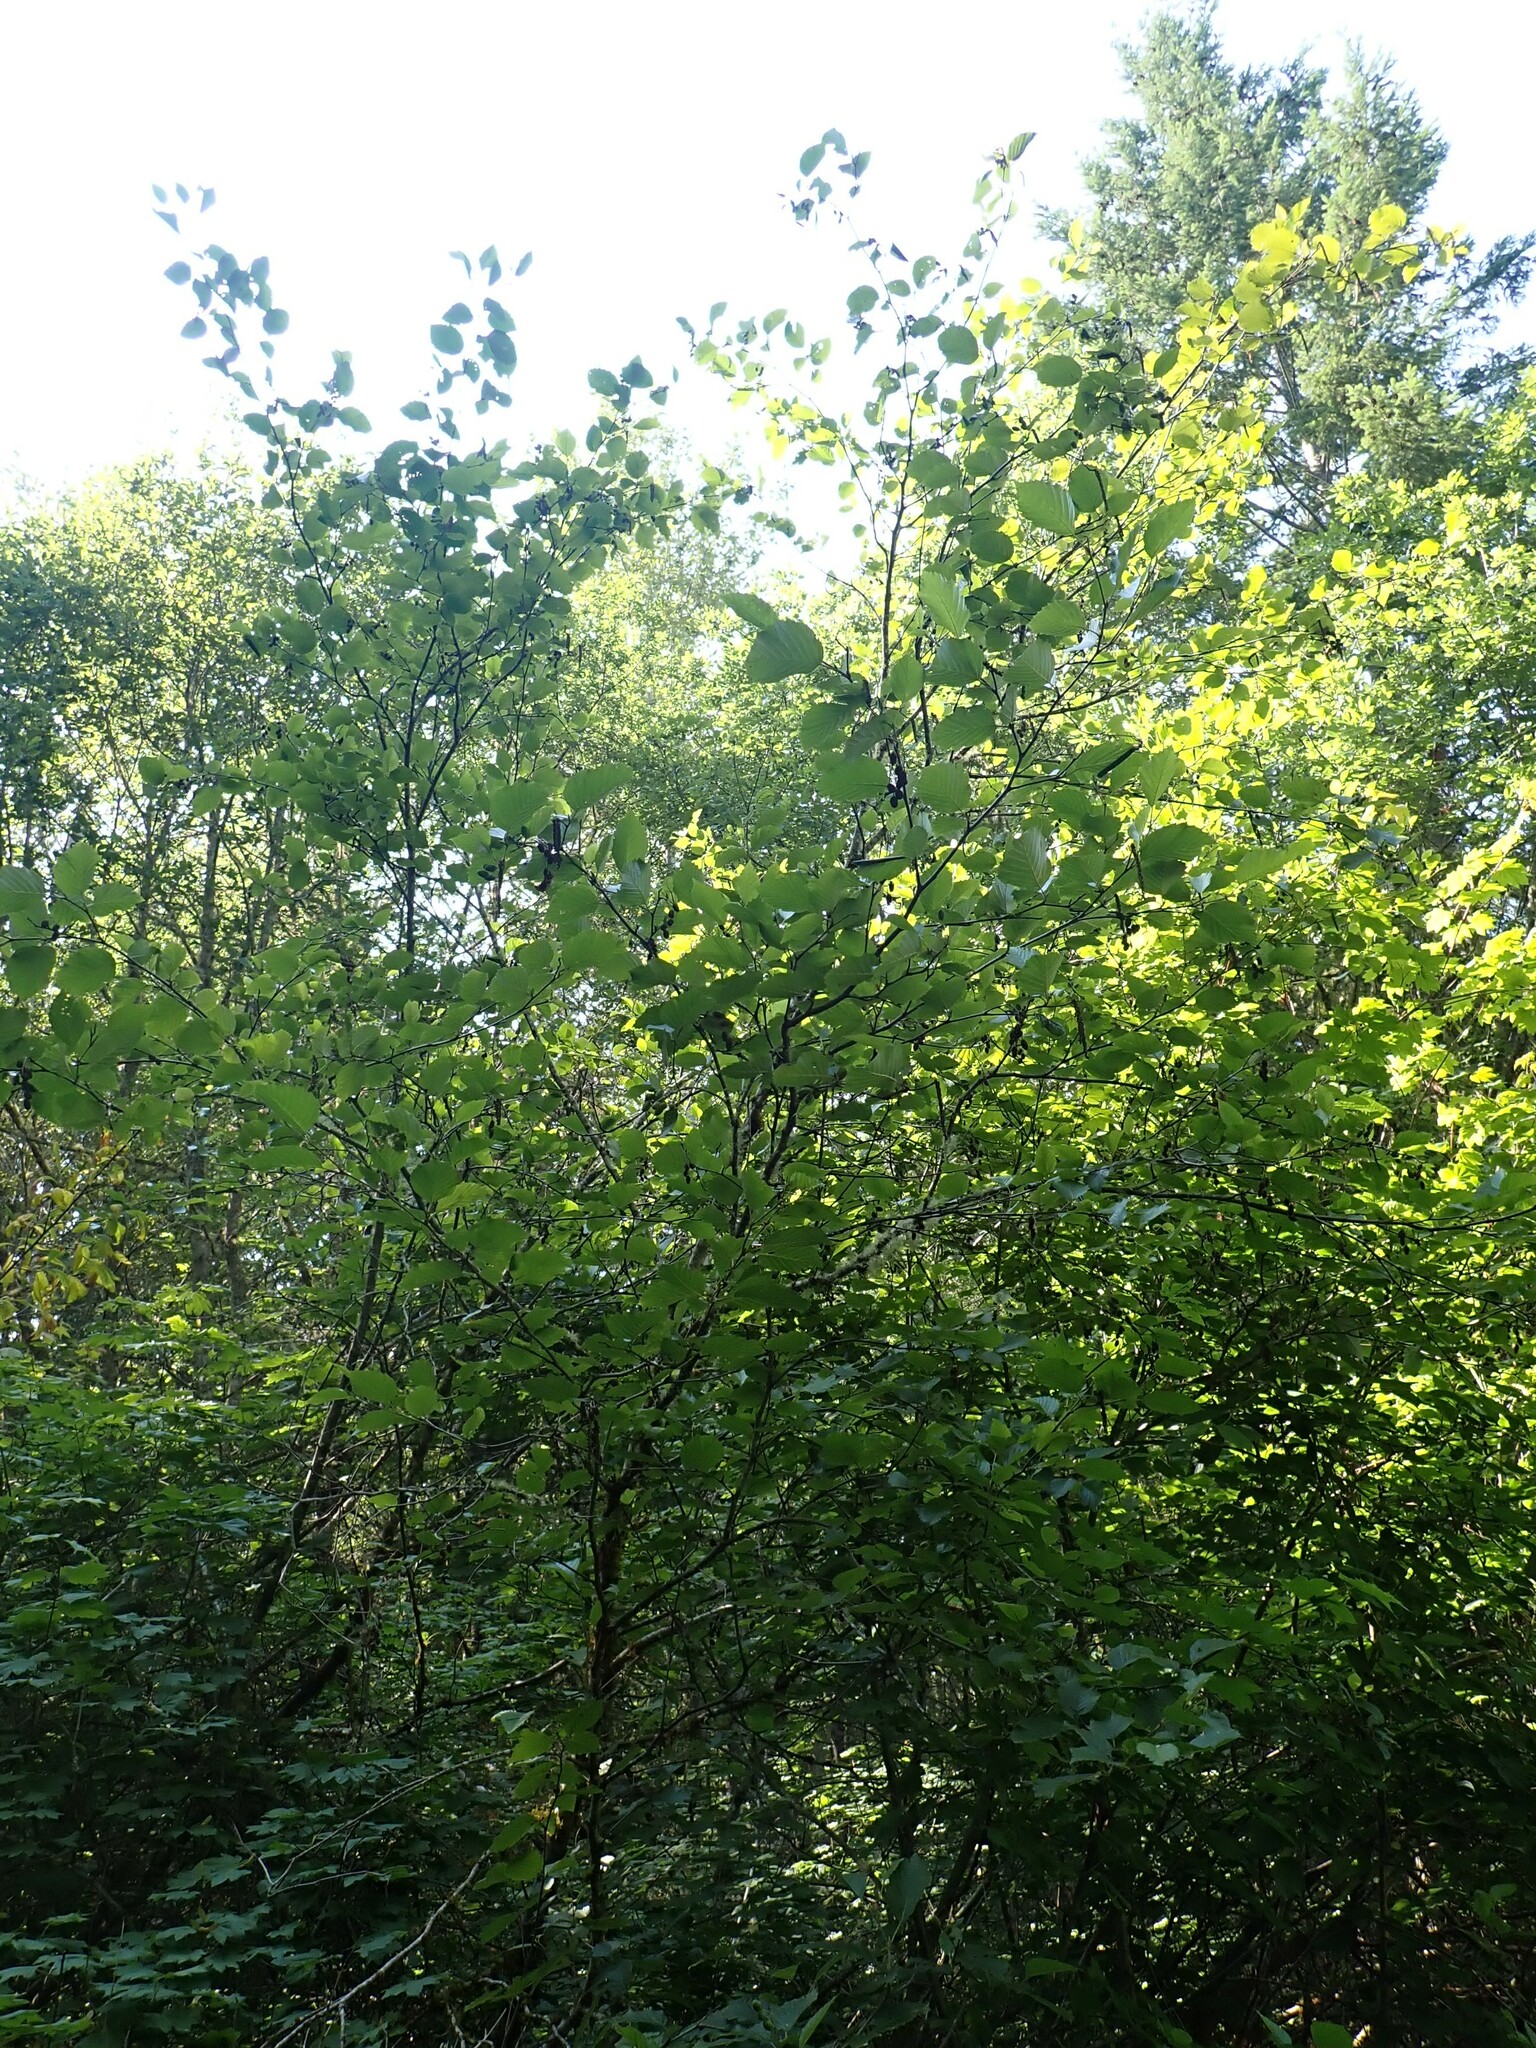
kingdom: Plantae
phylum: Tracheophyta
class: Magnoliopsida
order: Fagales
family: Betulaceae
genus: Alnus
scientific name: Alnus alnobetula
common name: Green alder
